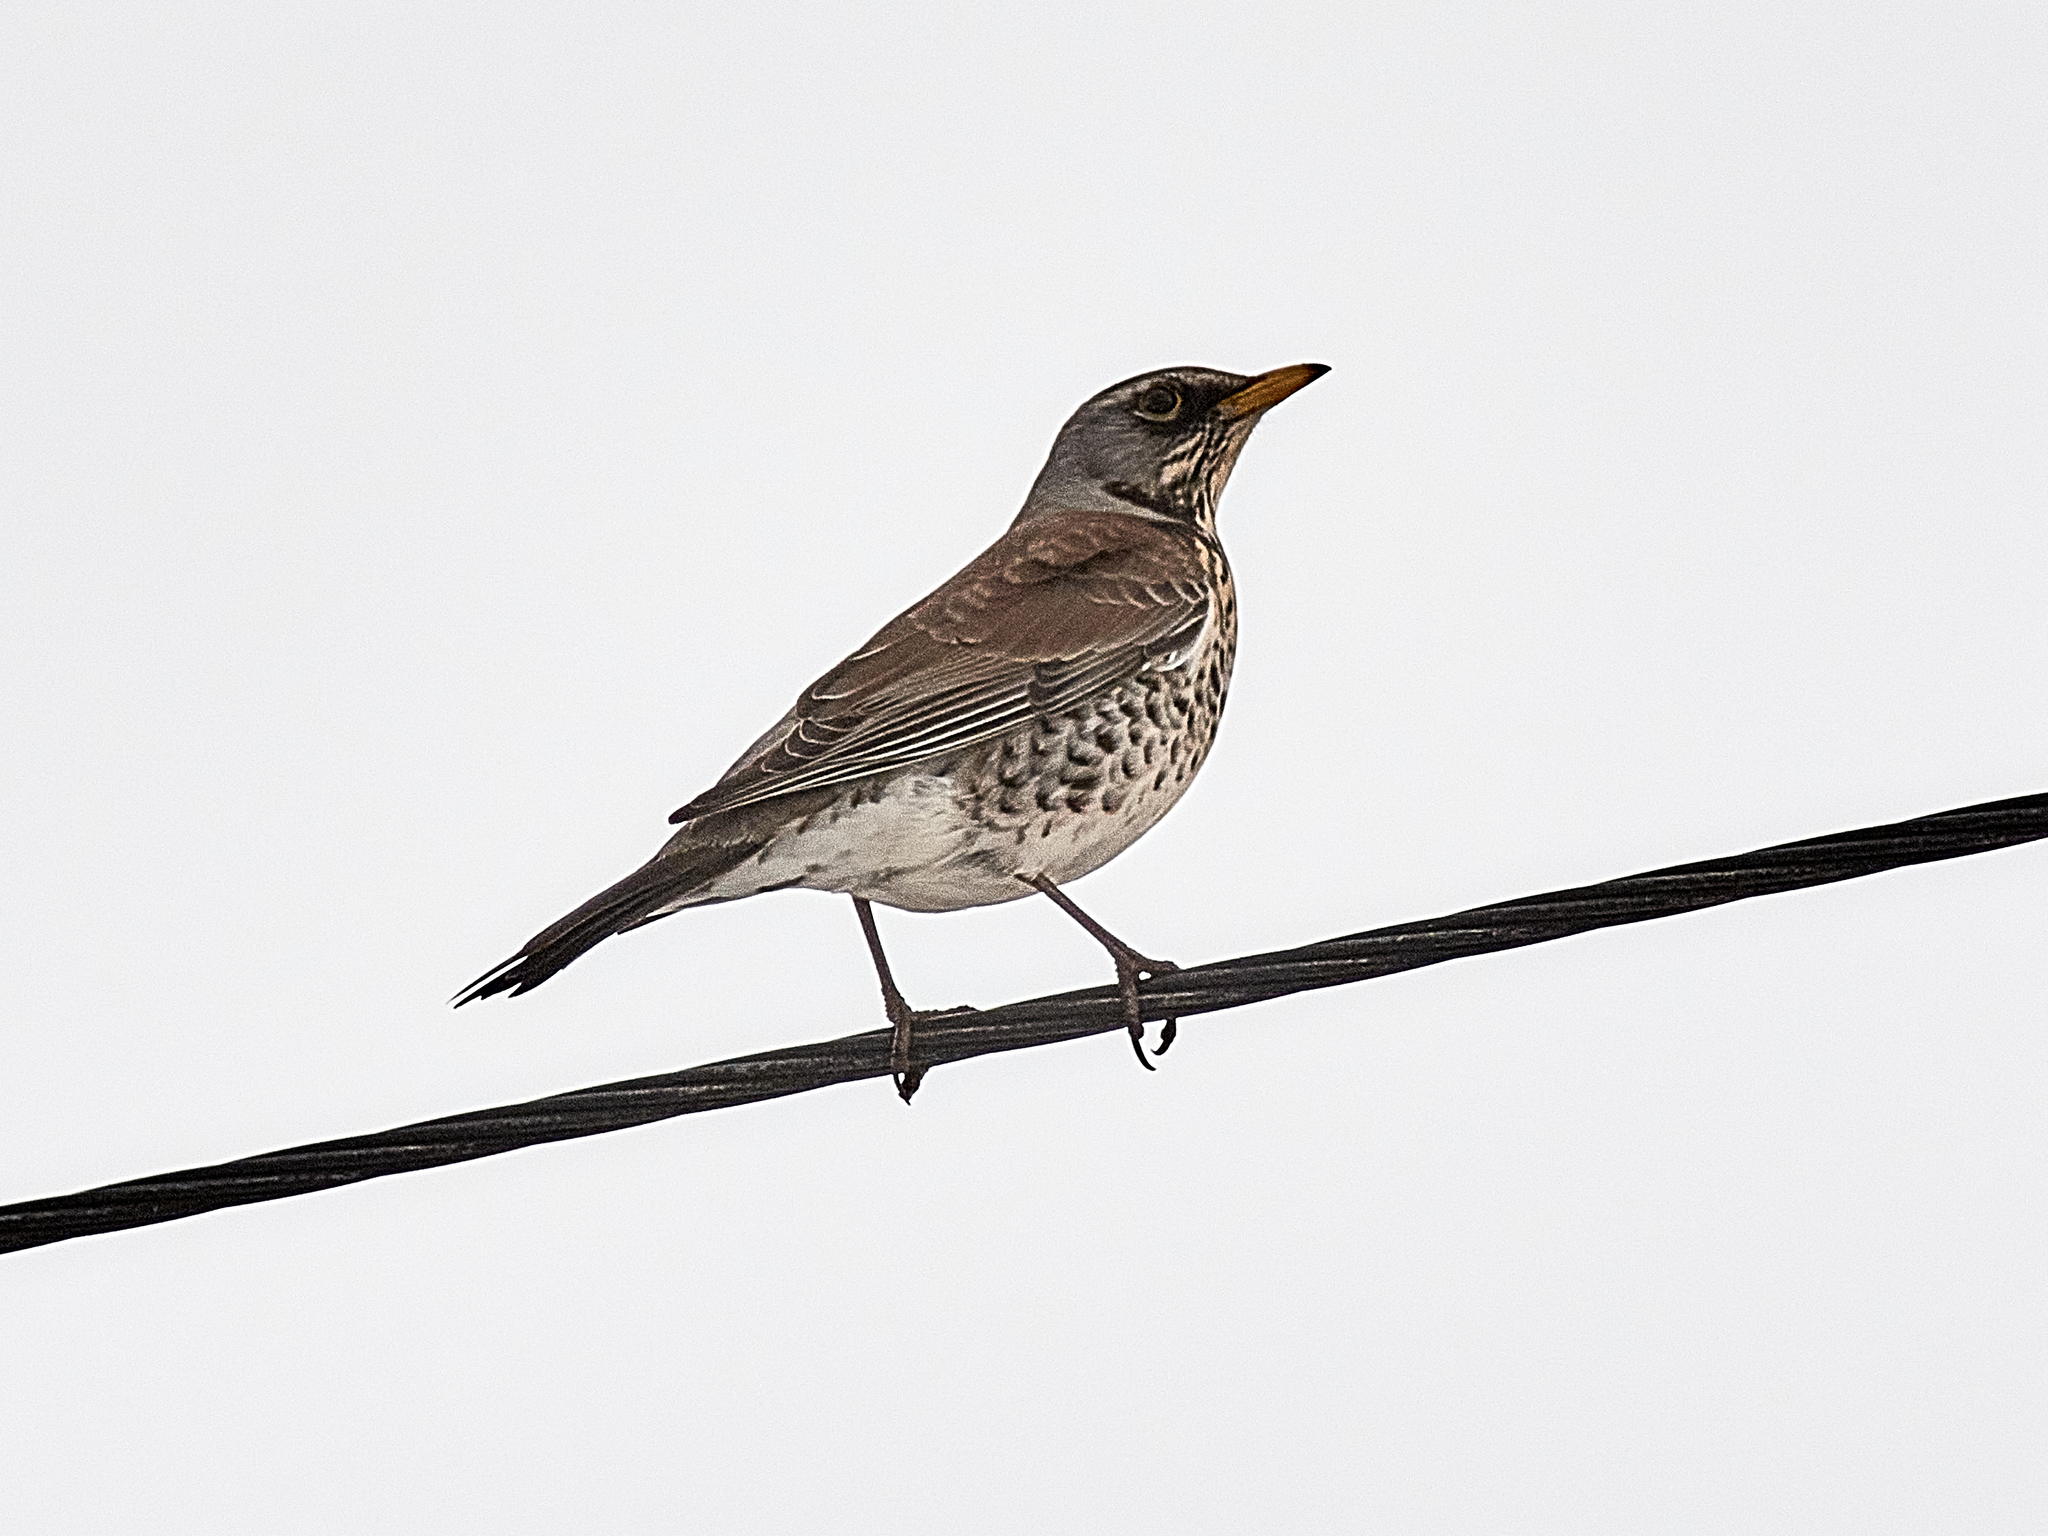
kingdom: Animalia
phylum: Chordata
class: Aves
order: Passeriformes
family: Turdidae
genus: Turdus
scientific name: Turdus pilaris
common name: Fieldfare
